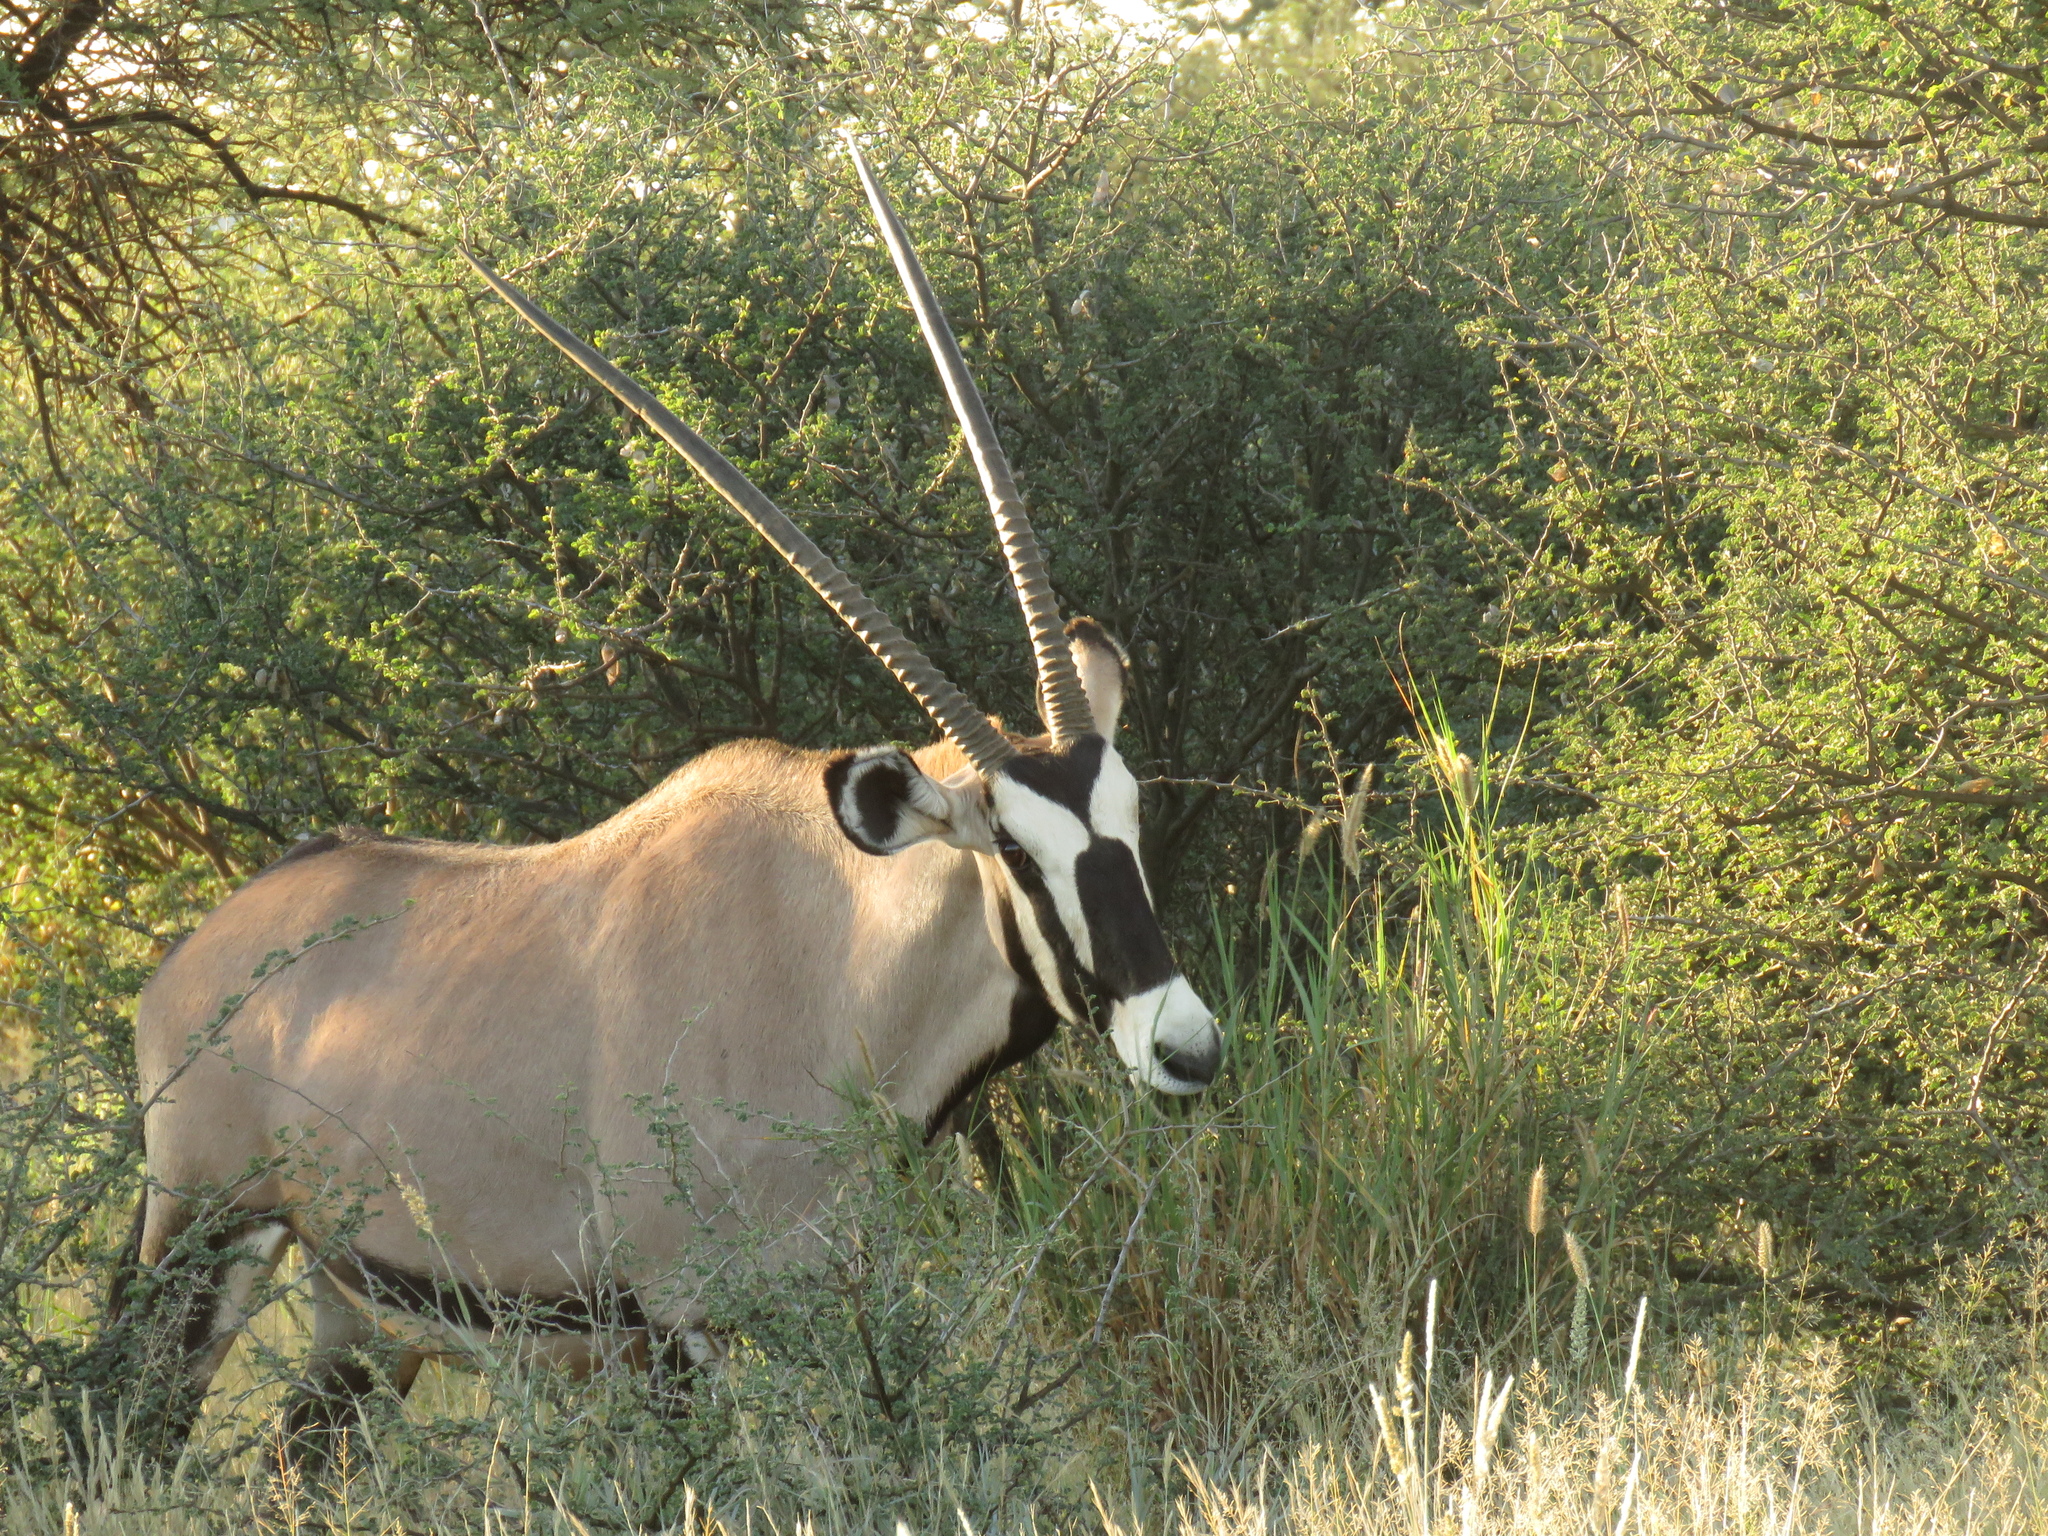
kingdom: Animalia
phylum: Chordata
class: Mammalia
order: Artiodactyla
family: Bovidae
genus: Oryx
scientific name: Oryx gazella
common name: Gemsbok
